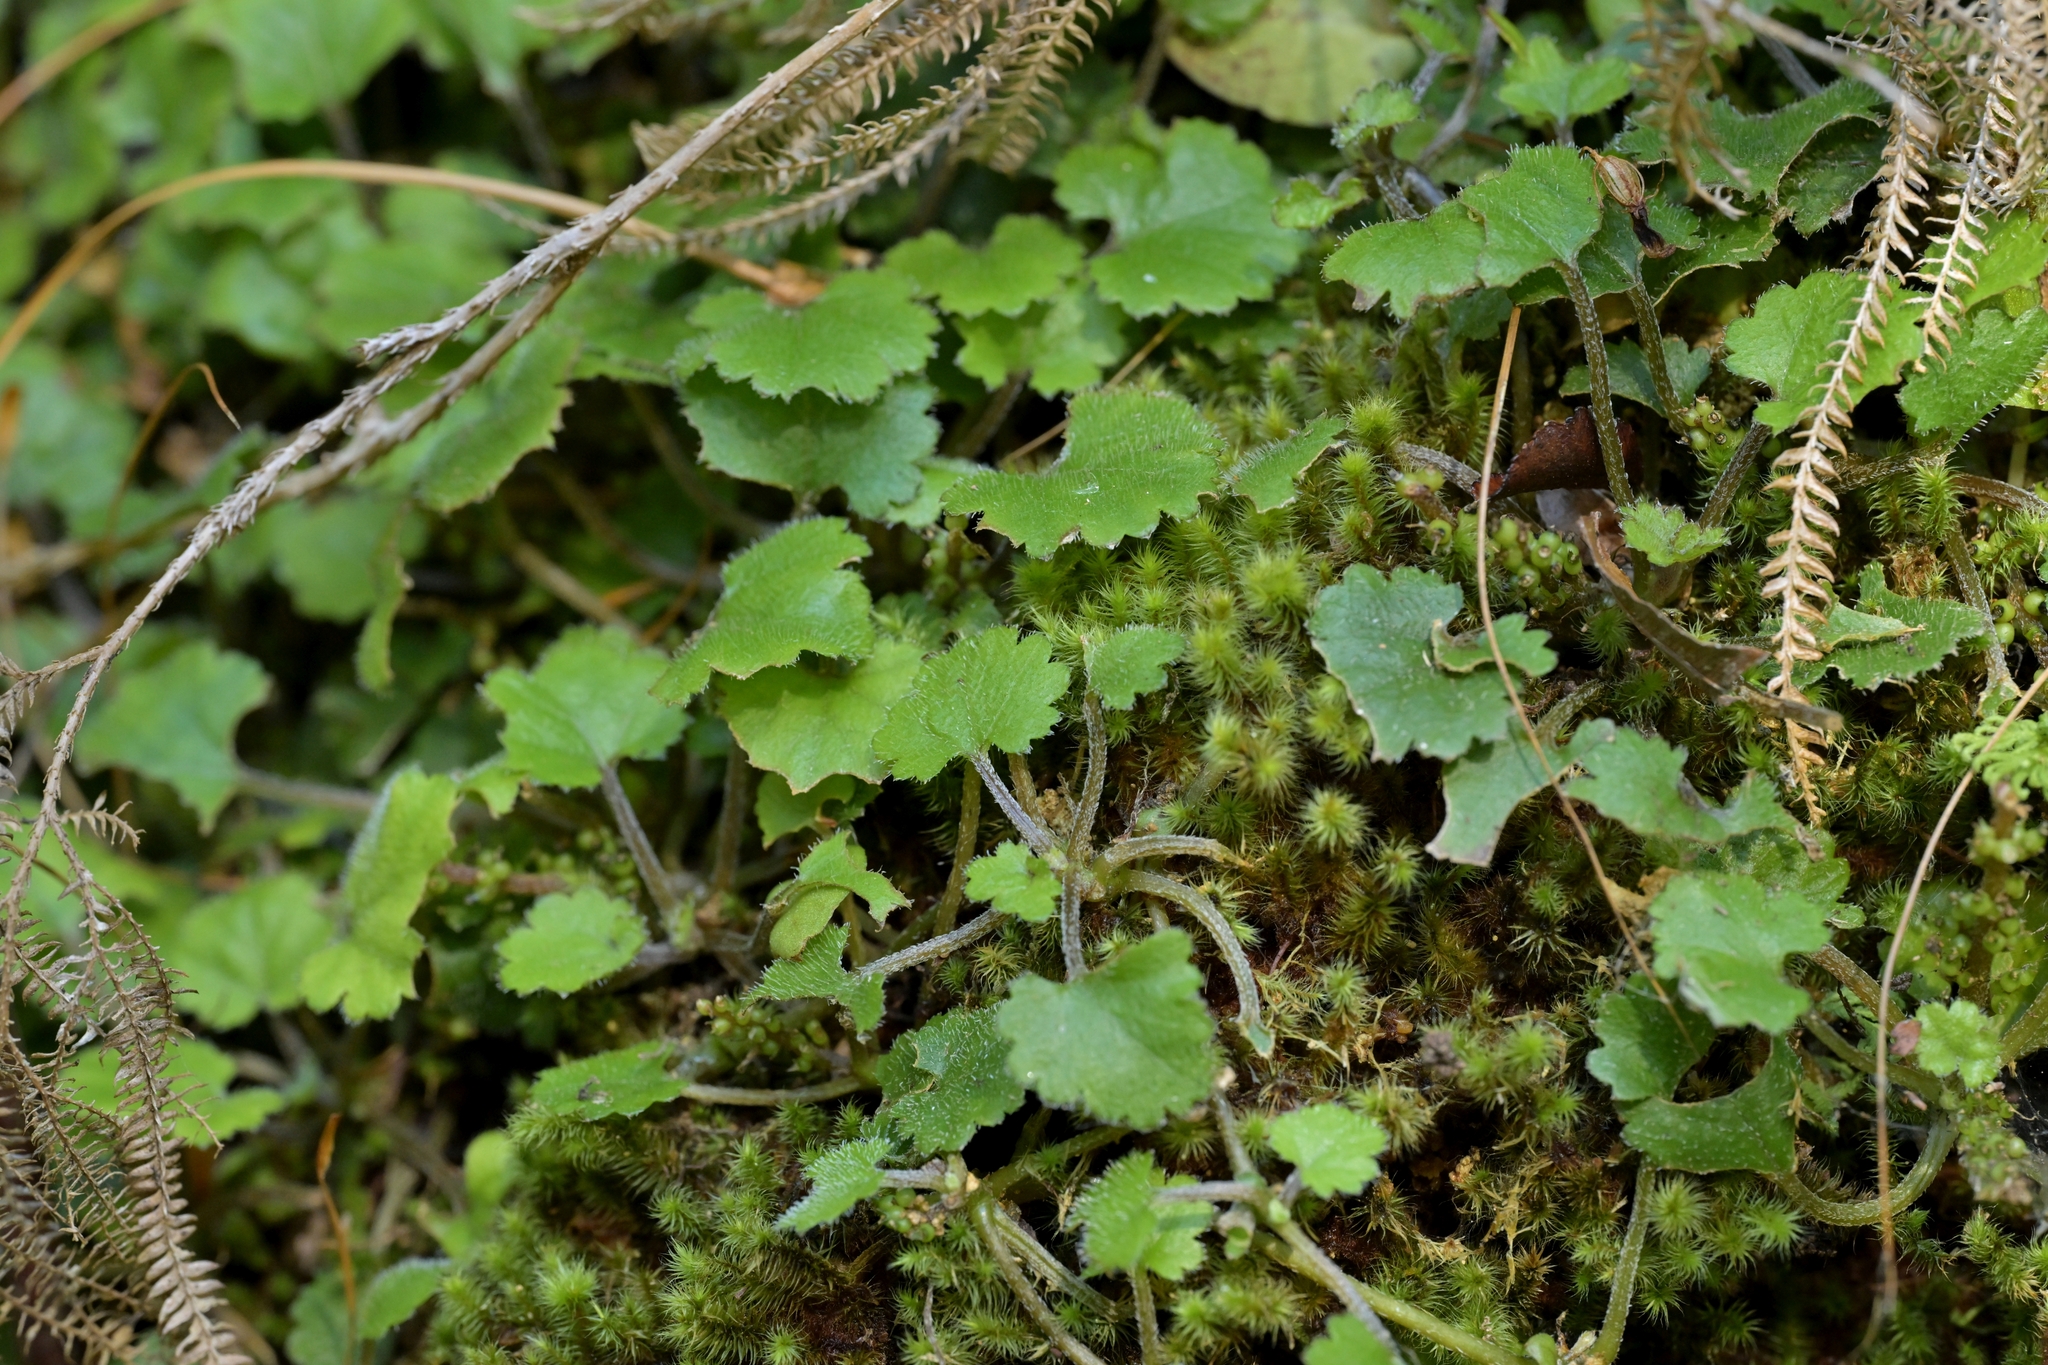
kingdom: Plantae
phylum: Tracheophyta
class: Magnoliopsida
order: Gunnerales
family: Gunneraceae
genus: Gunnera
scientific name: Gunnera monoica
